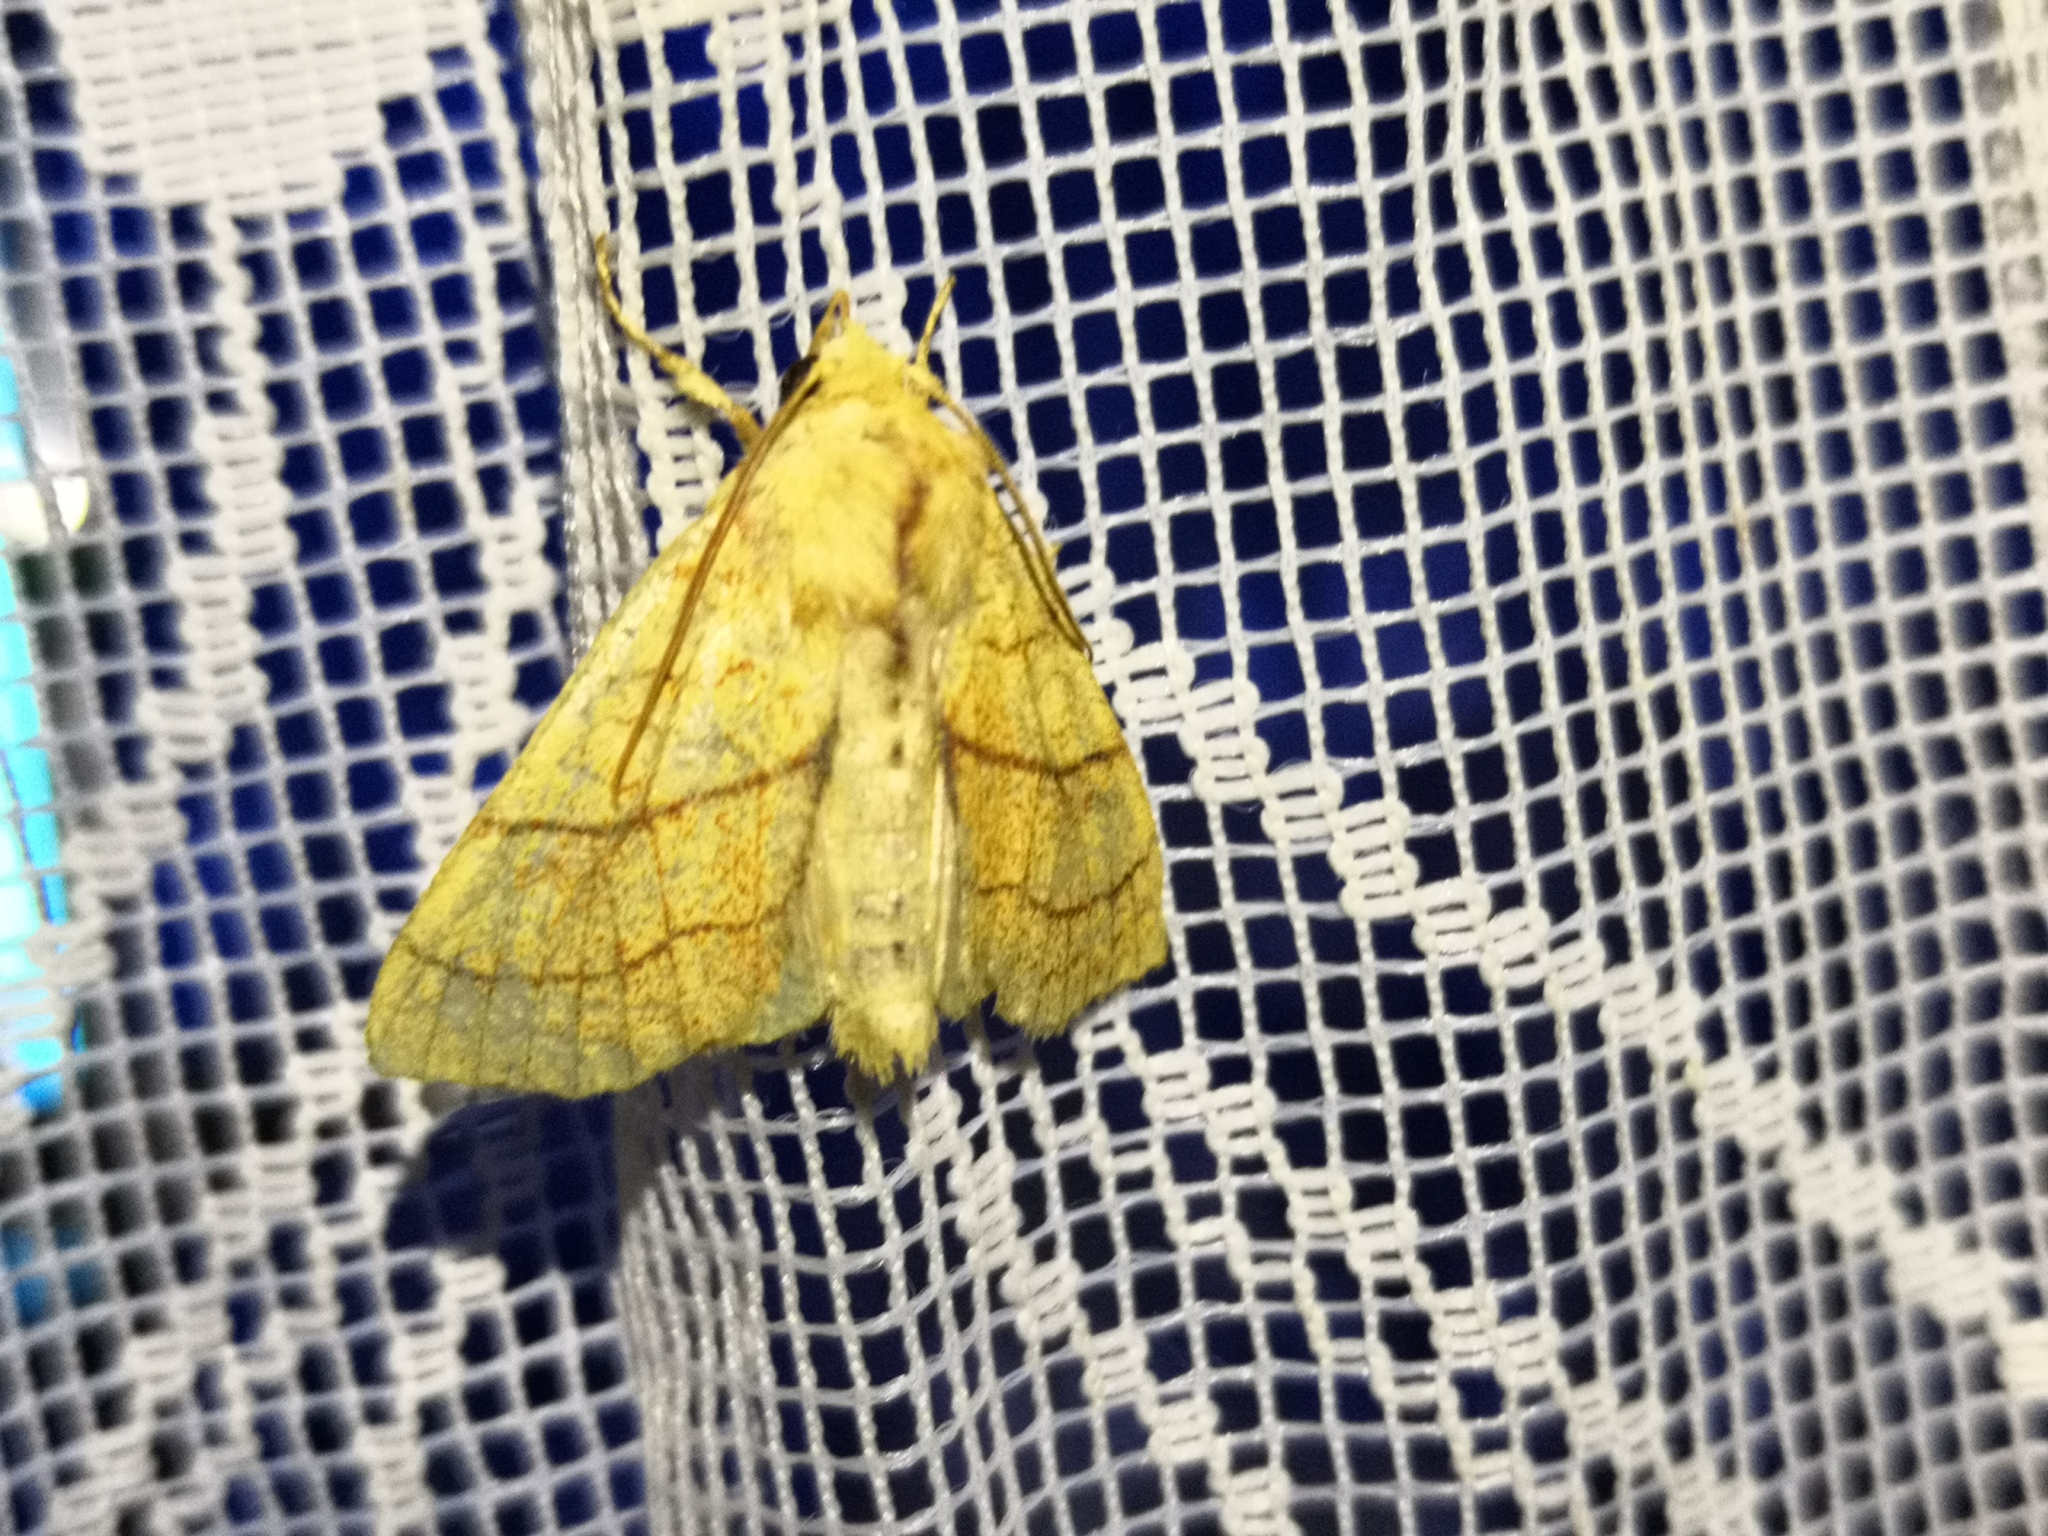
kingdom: Animalia
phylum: Arthropoda
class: Insecta
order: Lepidoptera
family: Noctuidae
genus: Tiliacea
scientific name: Tiliacea citrago
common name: Orange sallow
